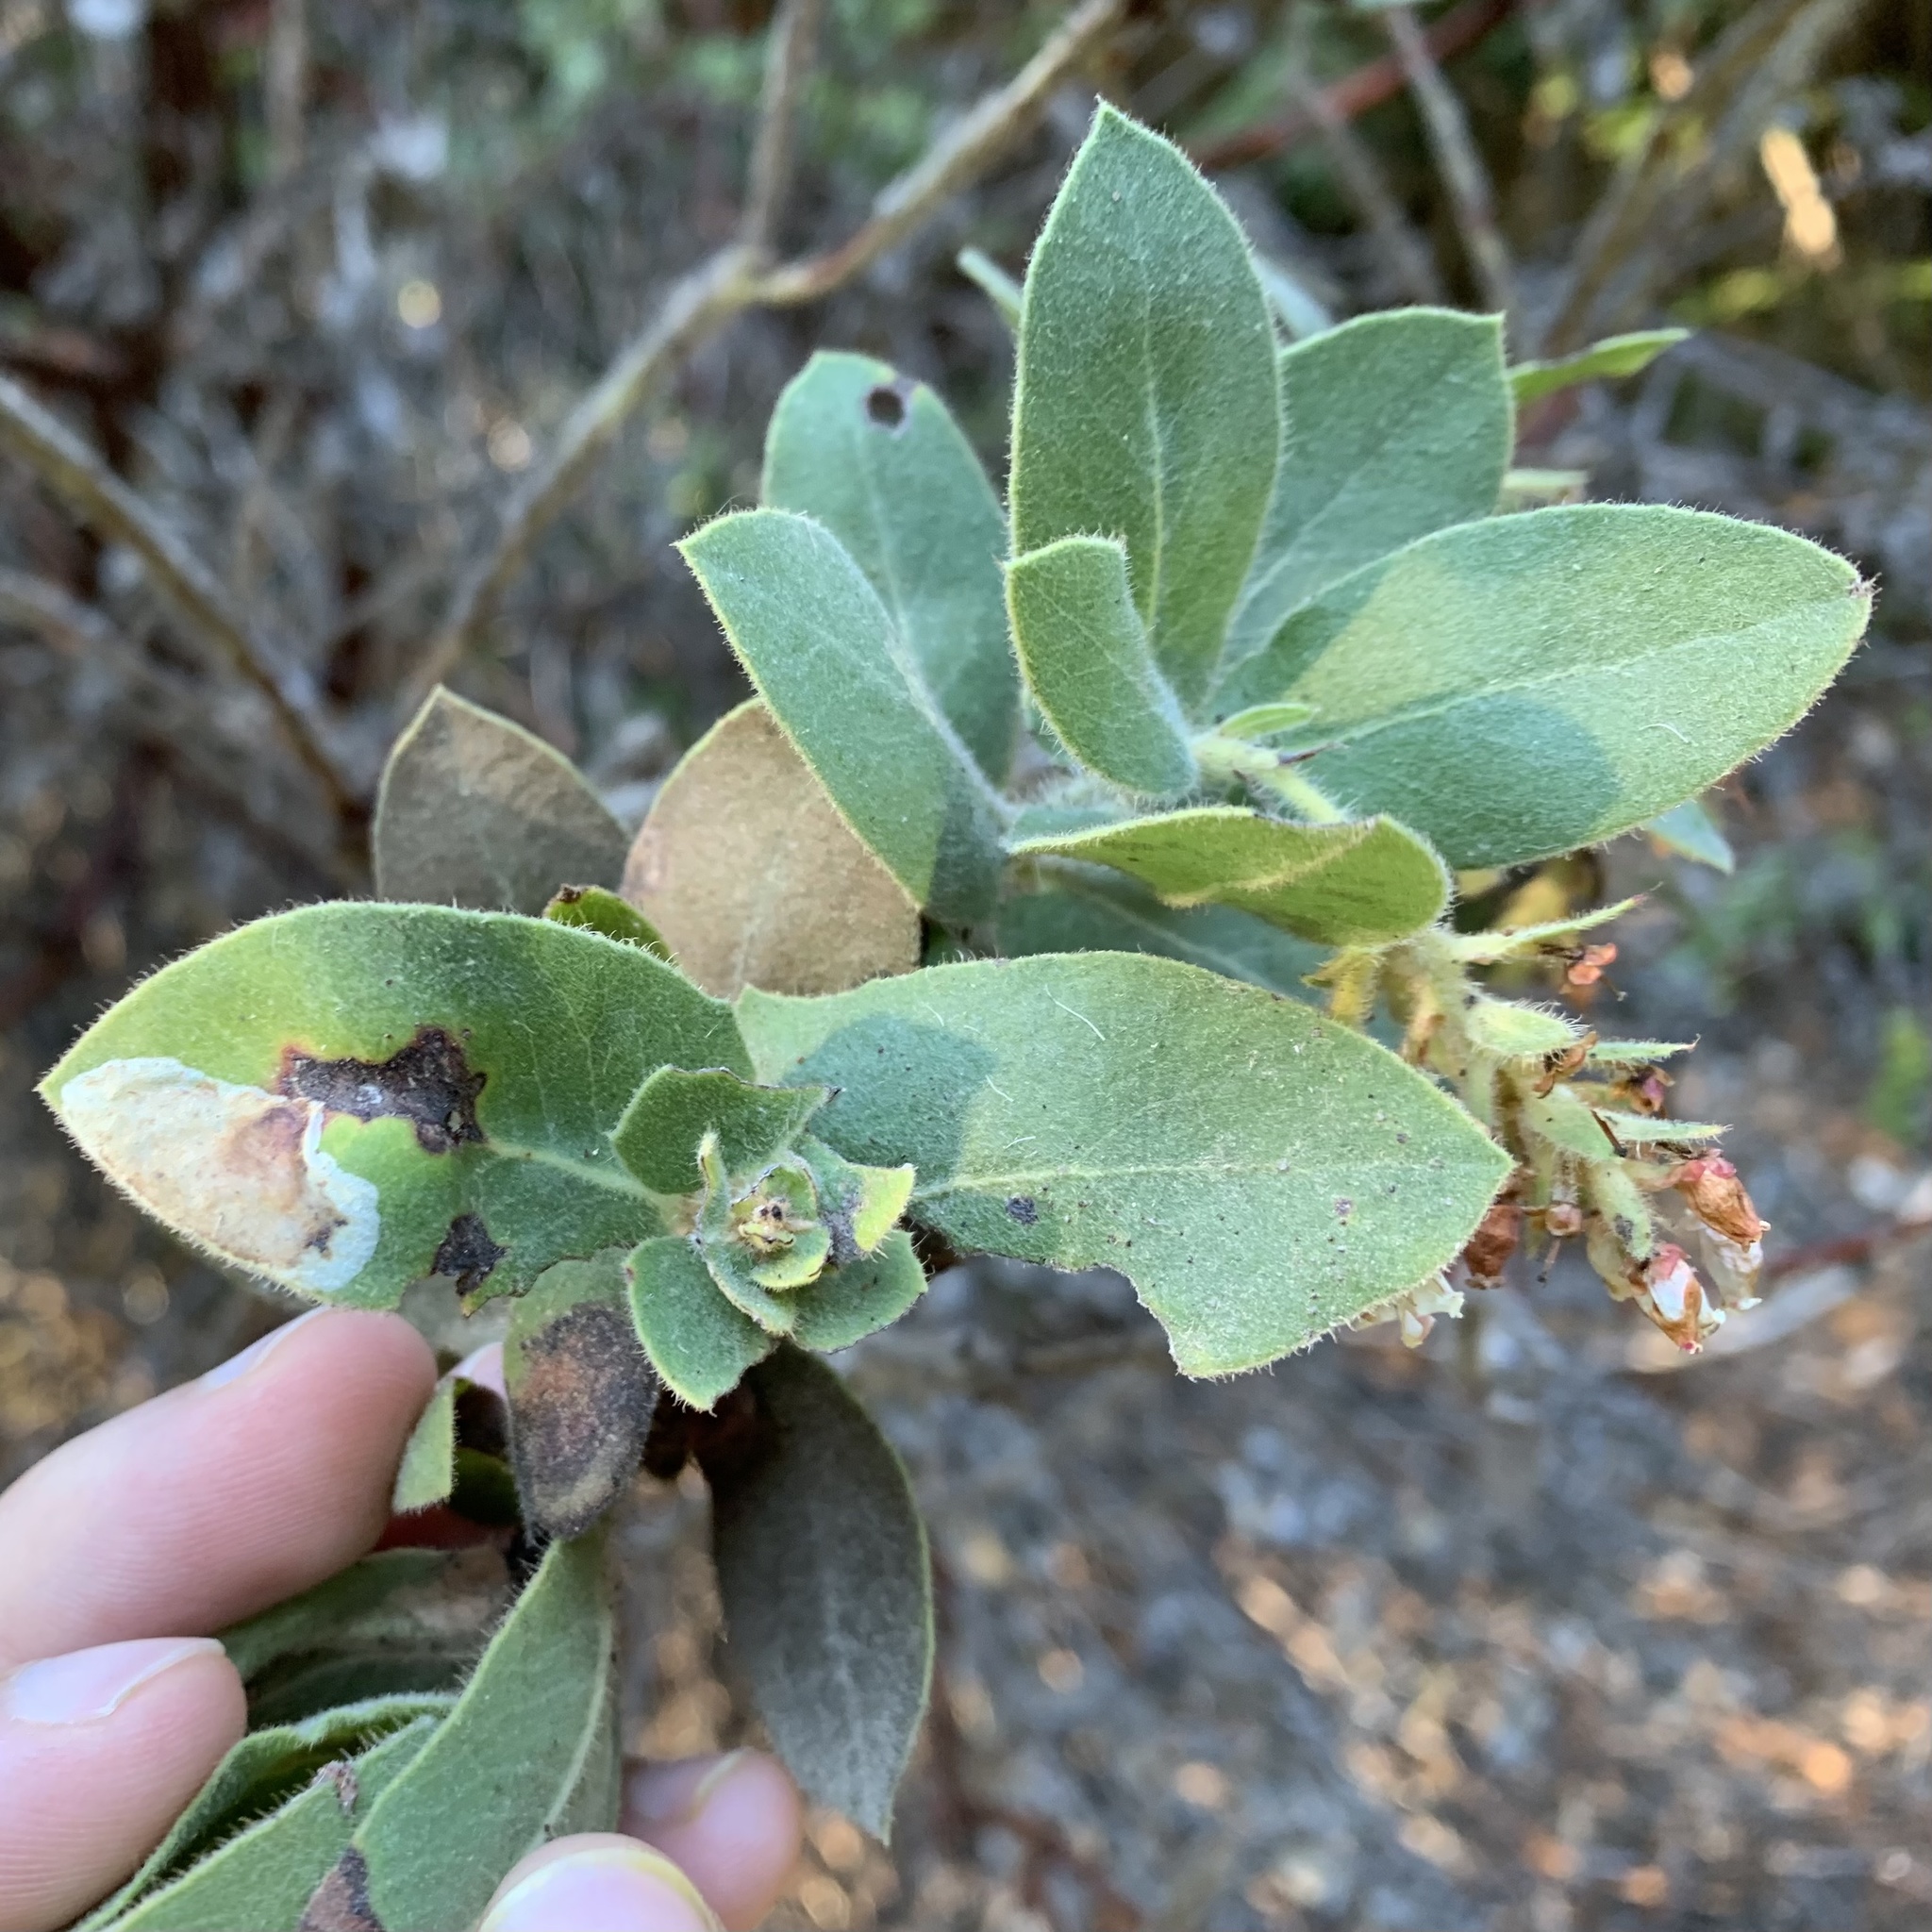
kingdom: Animalia
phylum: Arthropoda
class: Insecta
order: Lepidoptera
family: Gracillariidae
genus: Phyllonorycter
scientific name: Phyllonorycter manzanita
